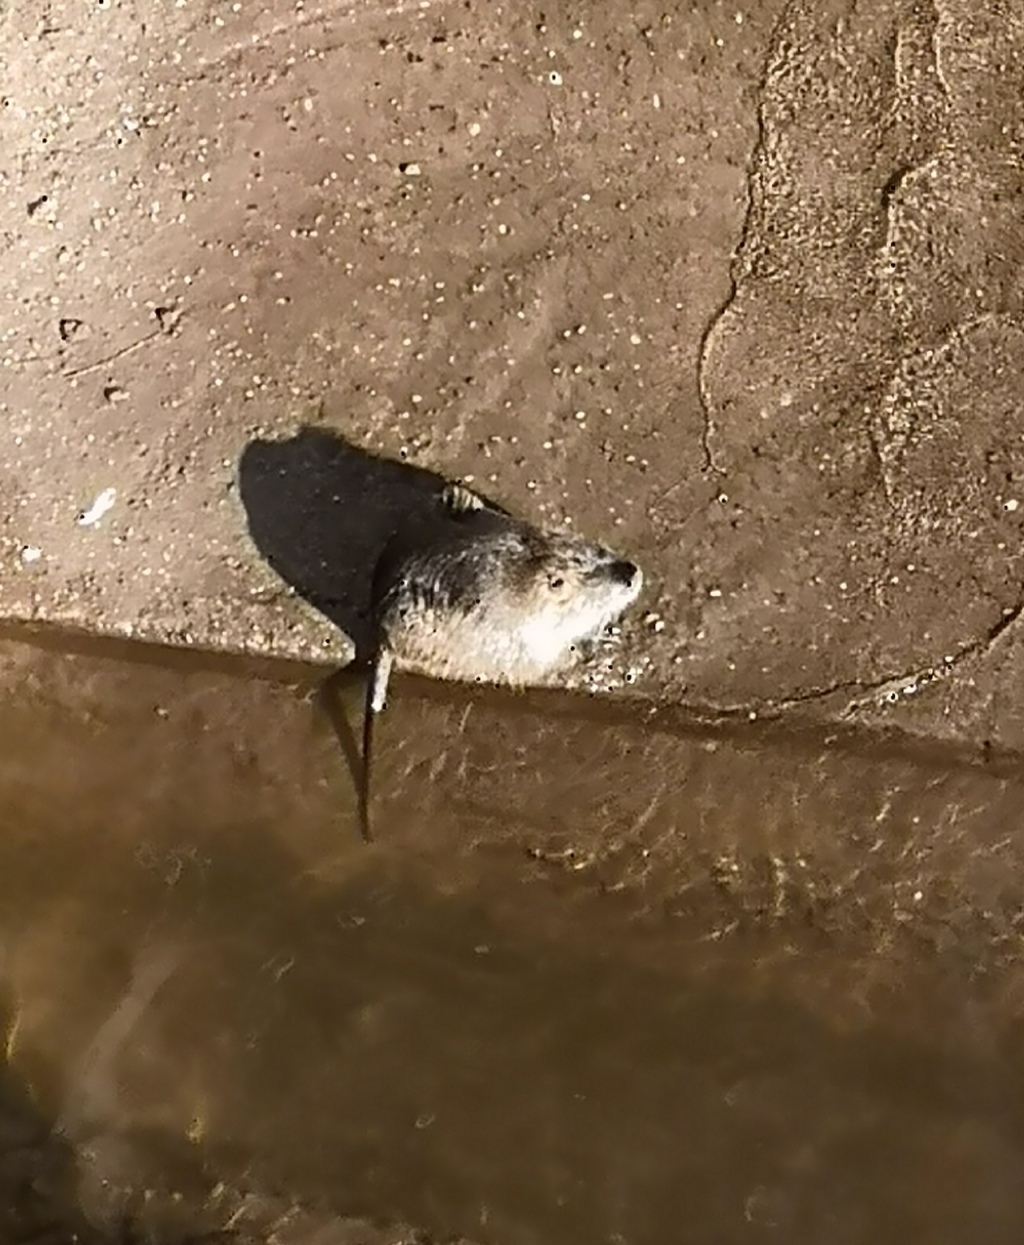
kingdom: Animalia
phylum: Chordata
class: Mammalia
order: Rodentia
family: Myocastoridae
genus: Myocastor
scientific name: Myocastor coypus
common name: Coypu
